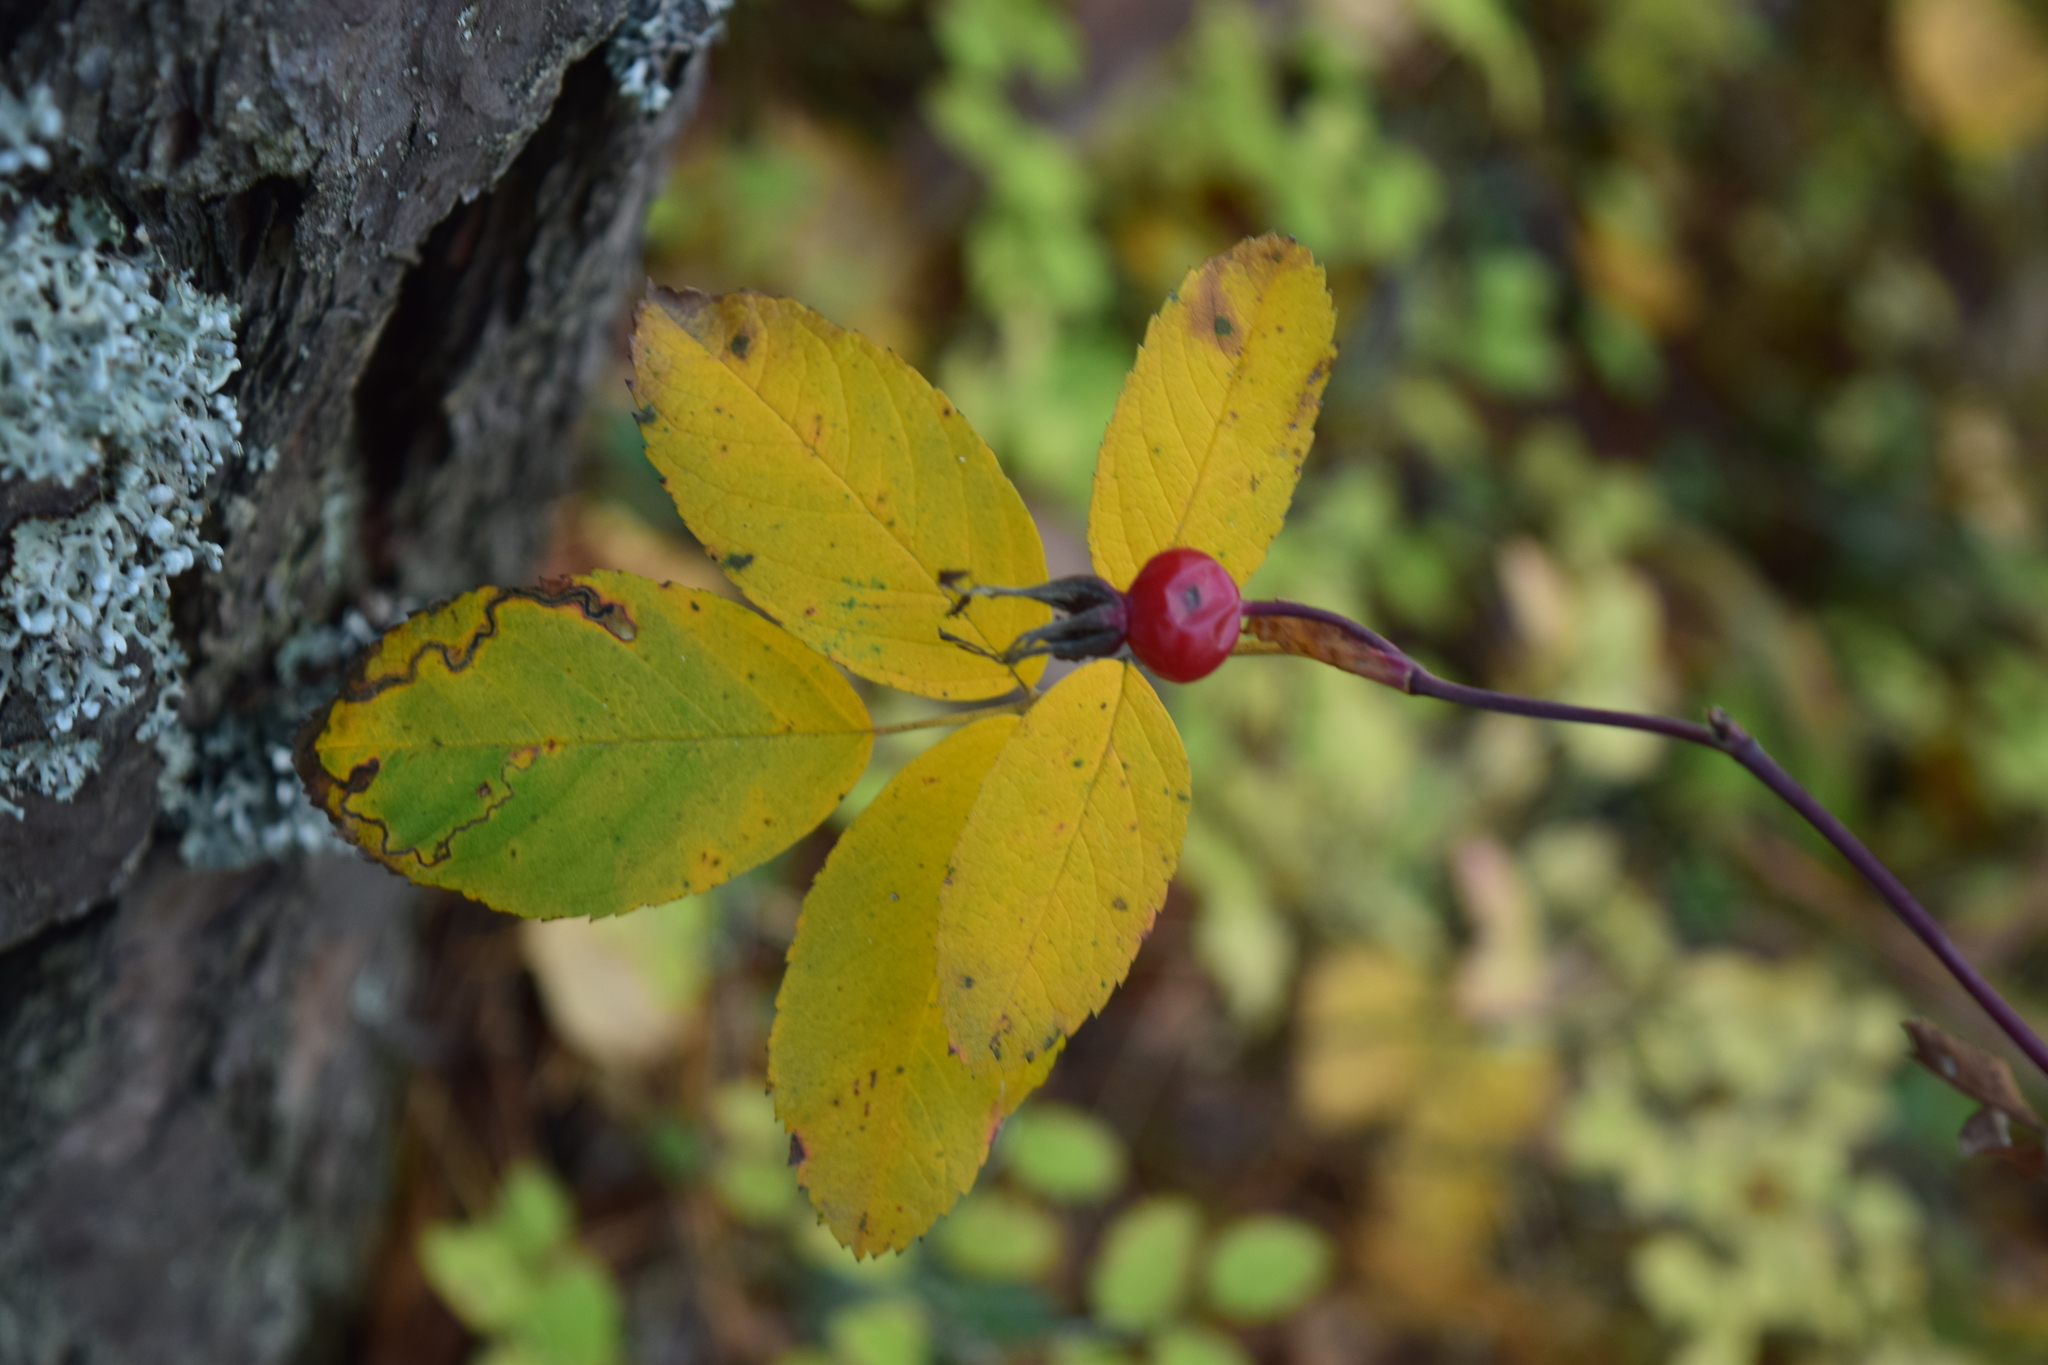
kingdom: Plantae
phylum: Tracheophyta
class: Magnoliopsida
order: Rosales
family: Rosaceae
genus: Rosa
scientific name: Rosa
